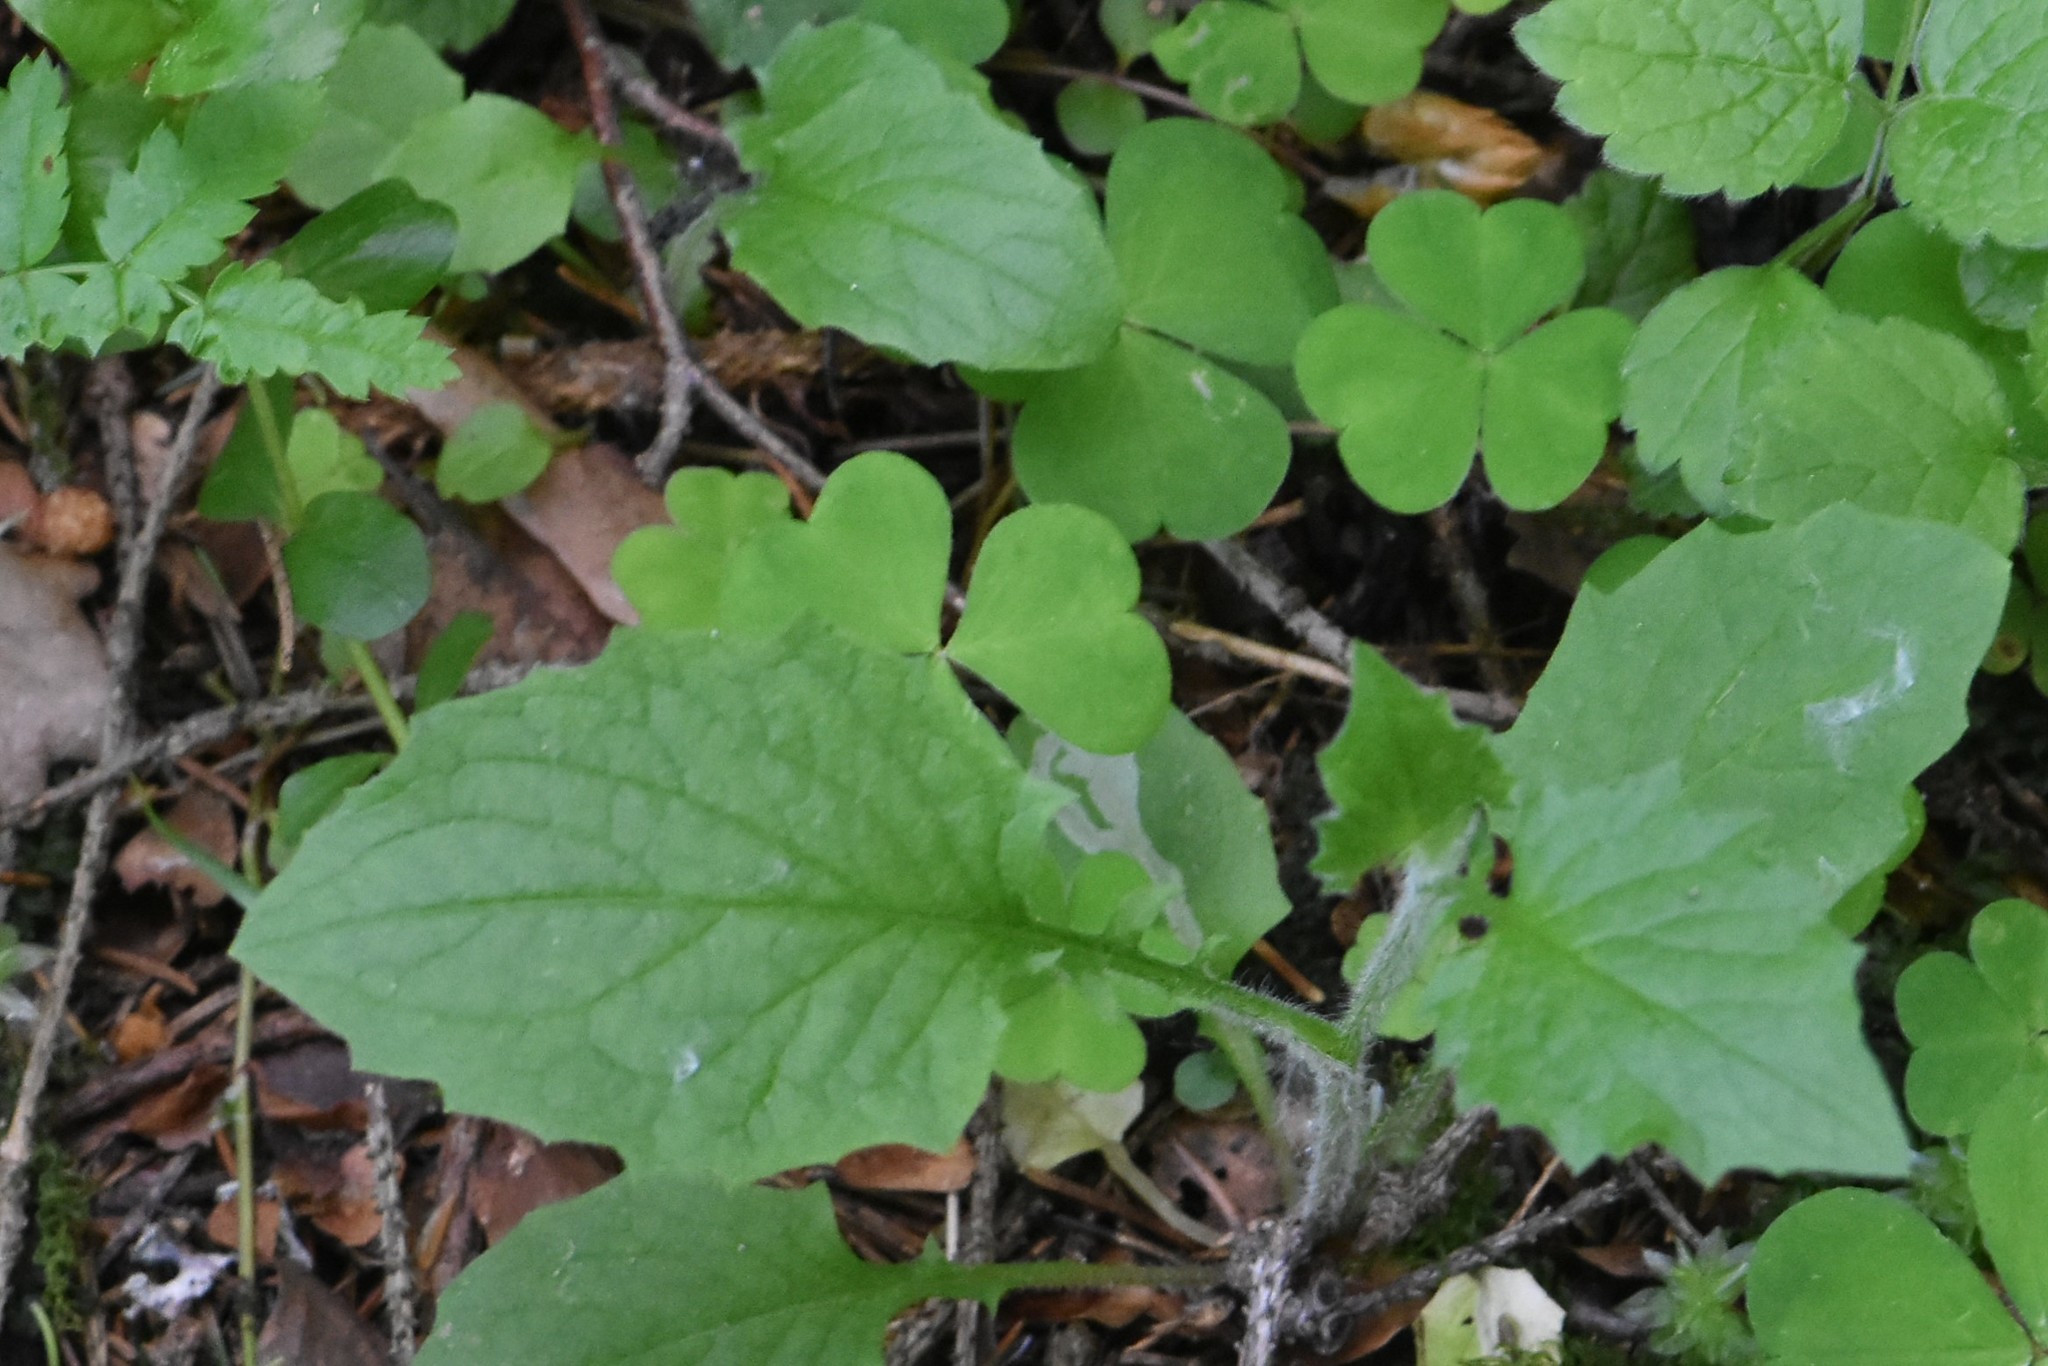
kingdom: Plantae
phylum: Tracheophyta
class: Magnoliopsida
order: Asterales
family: Asteraceae
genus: Lapsana
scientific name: Lapsana communis
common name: Nipplewort
